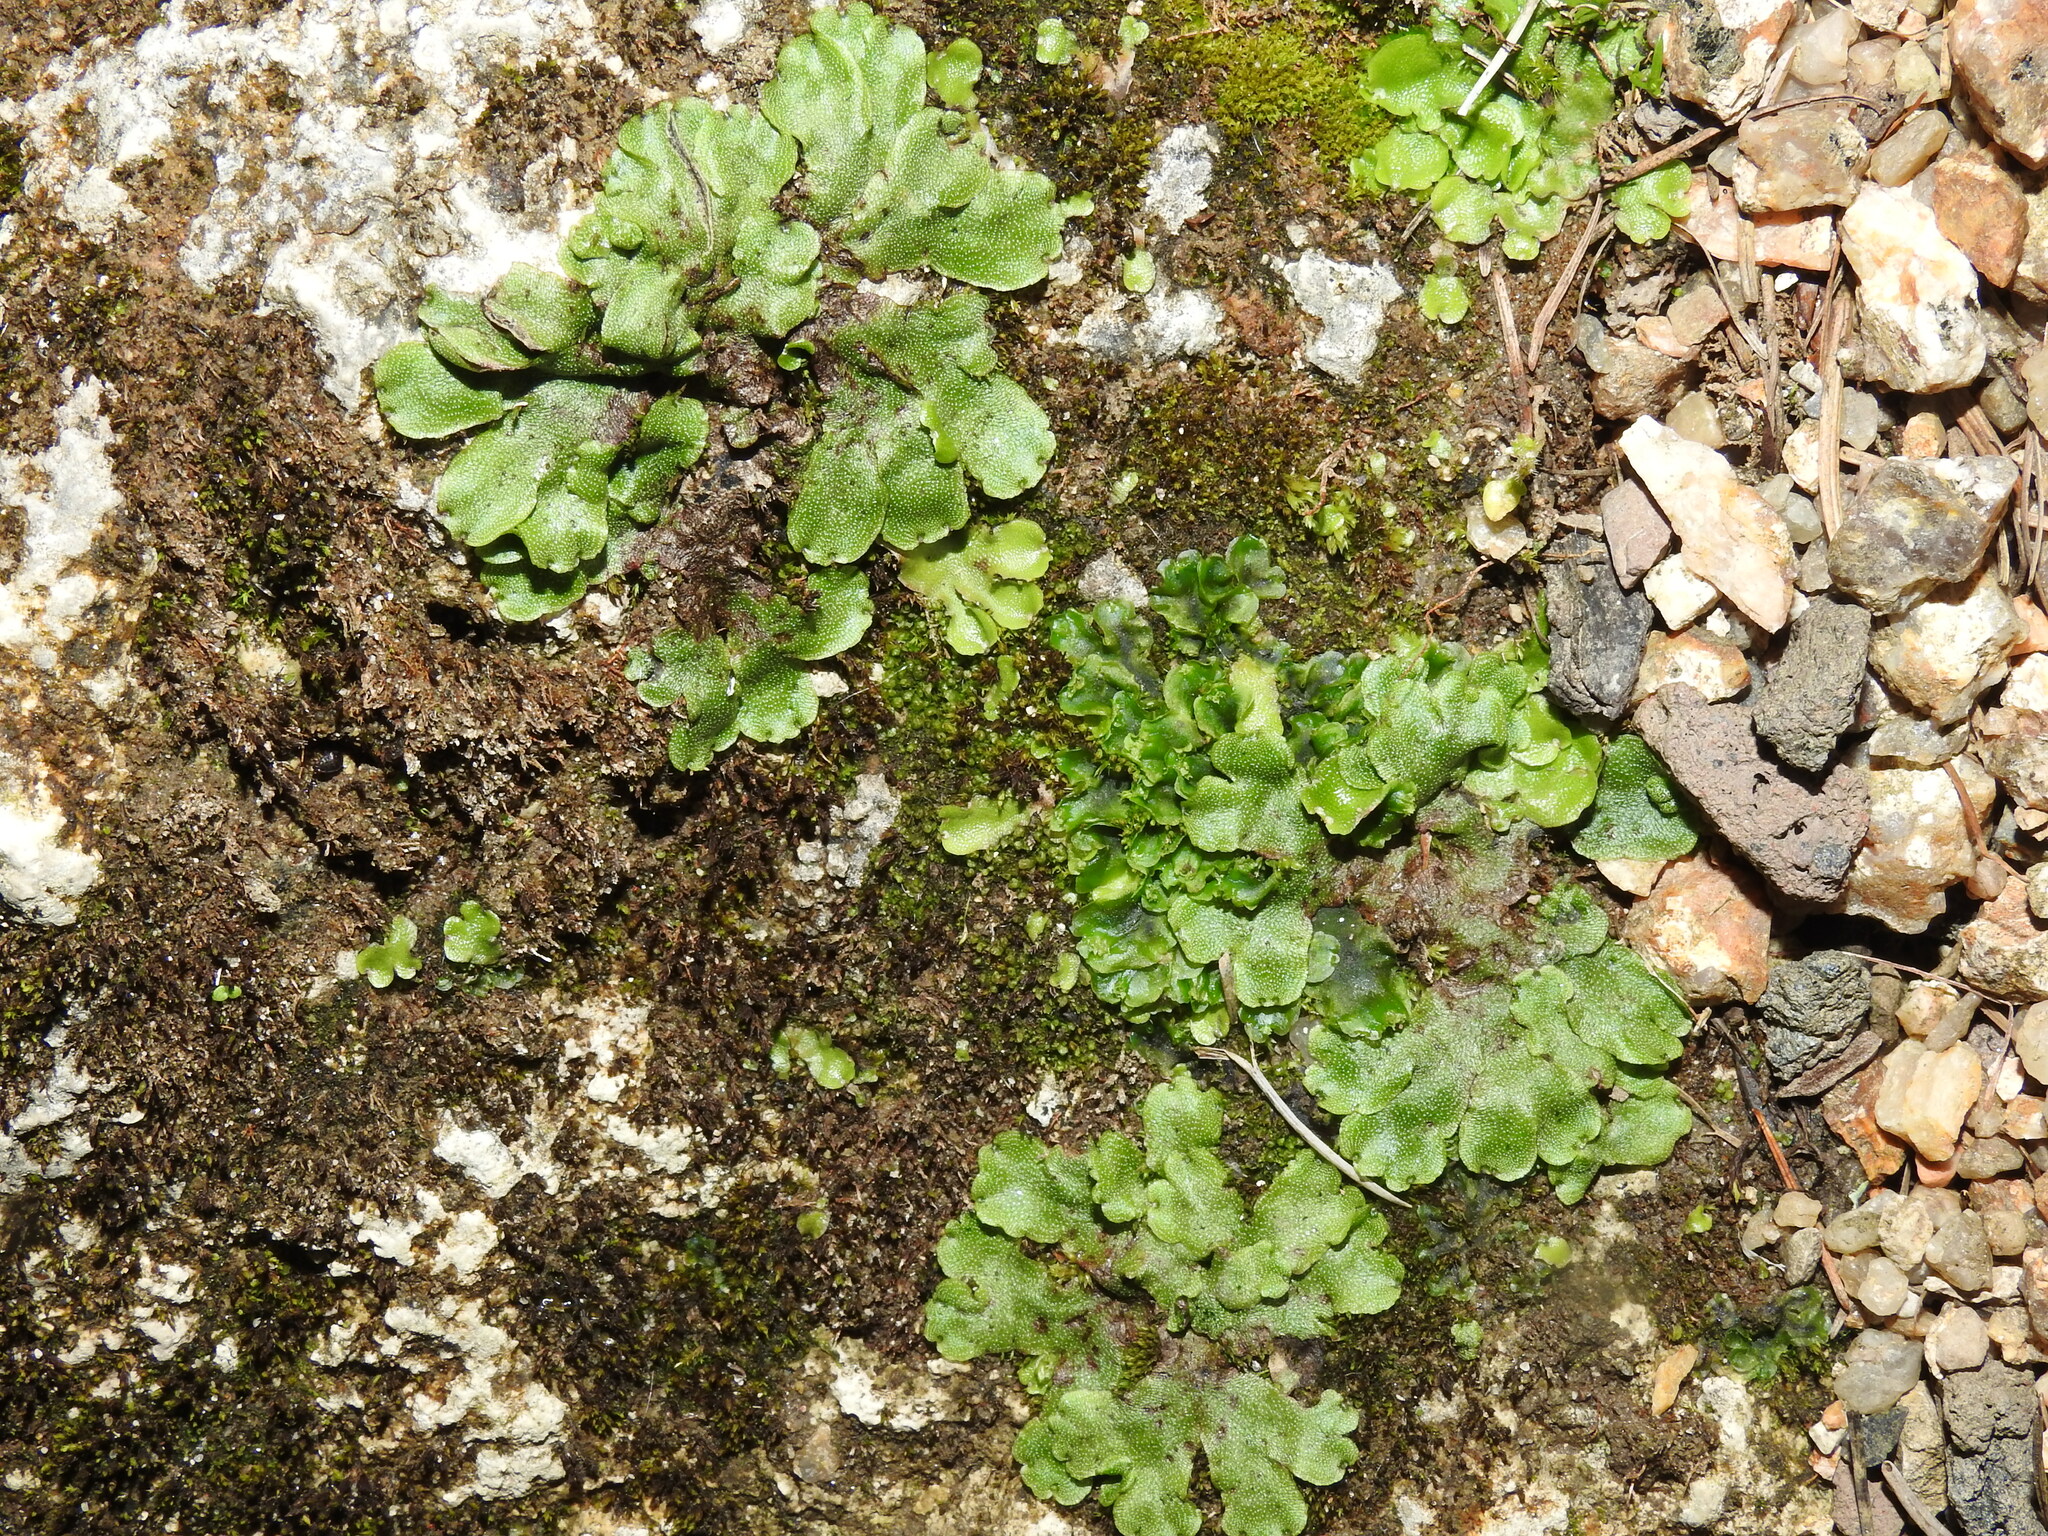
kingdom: Plantae
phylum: Marchantiophyta
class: Marchantiopsida
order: Marchantiales
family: Marchantiaceae
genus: Marchantia
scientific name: Marchantia quadrata
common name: Narrow mushroom-headed liverwort
